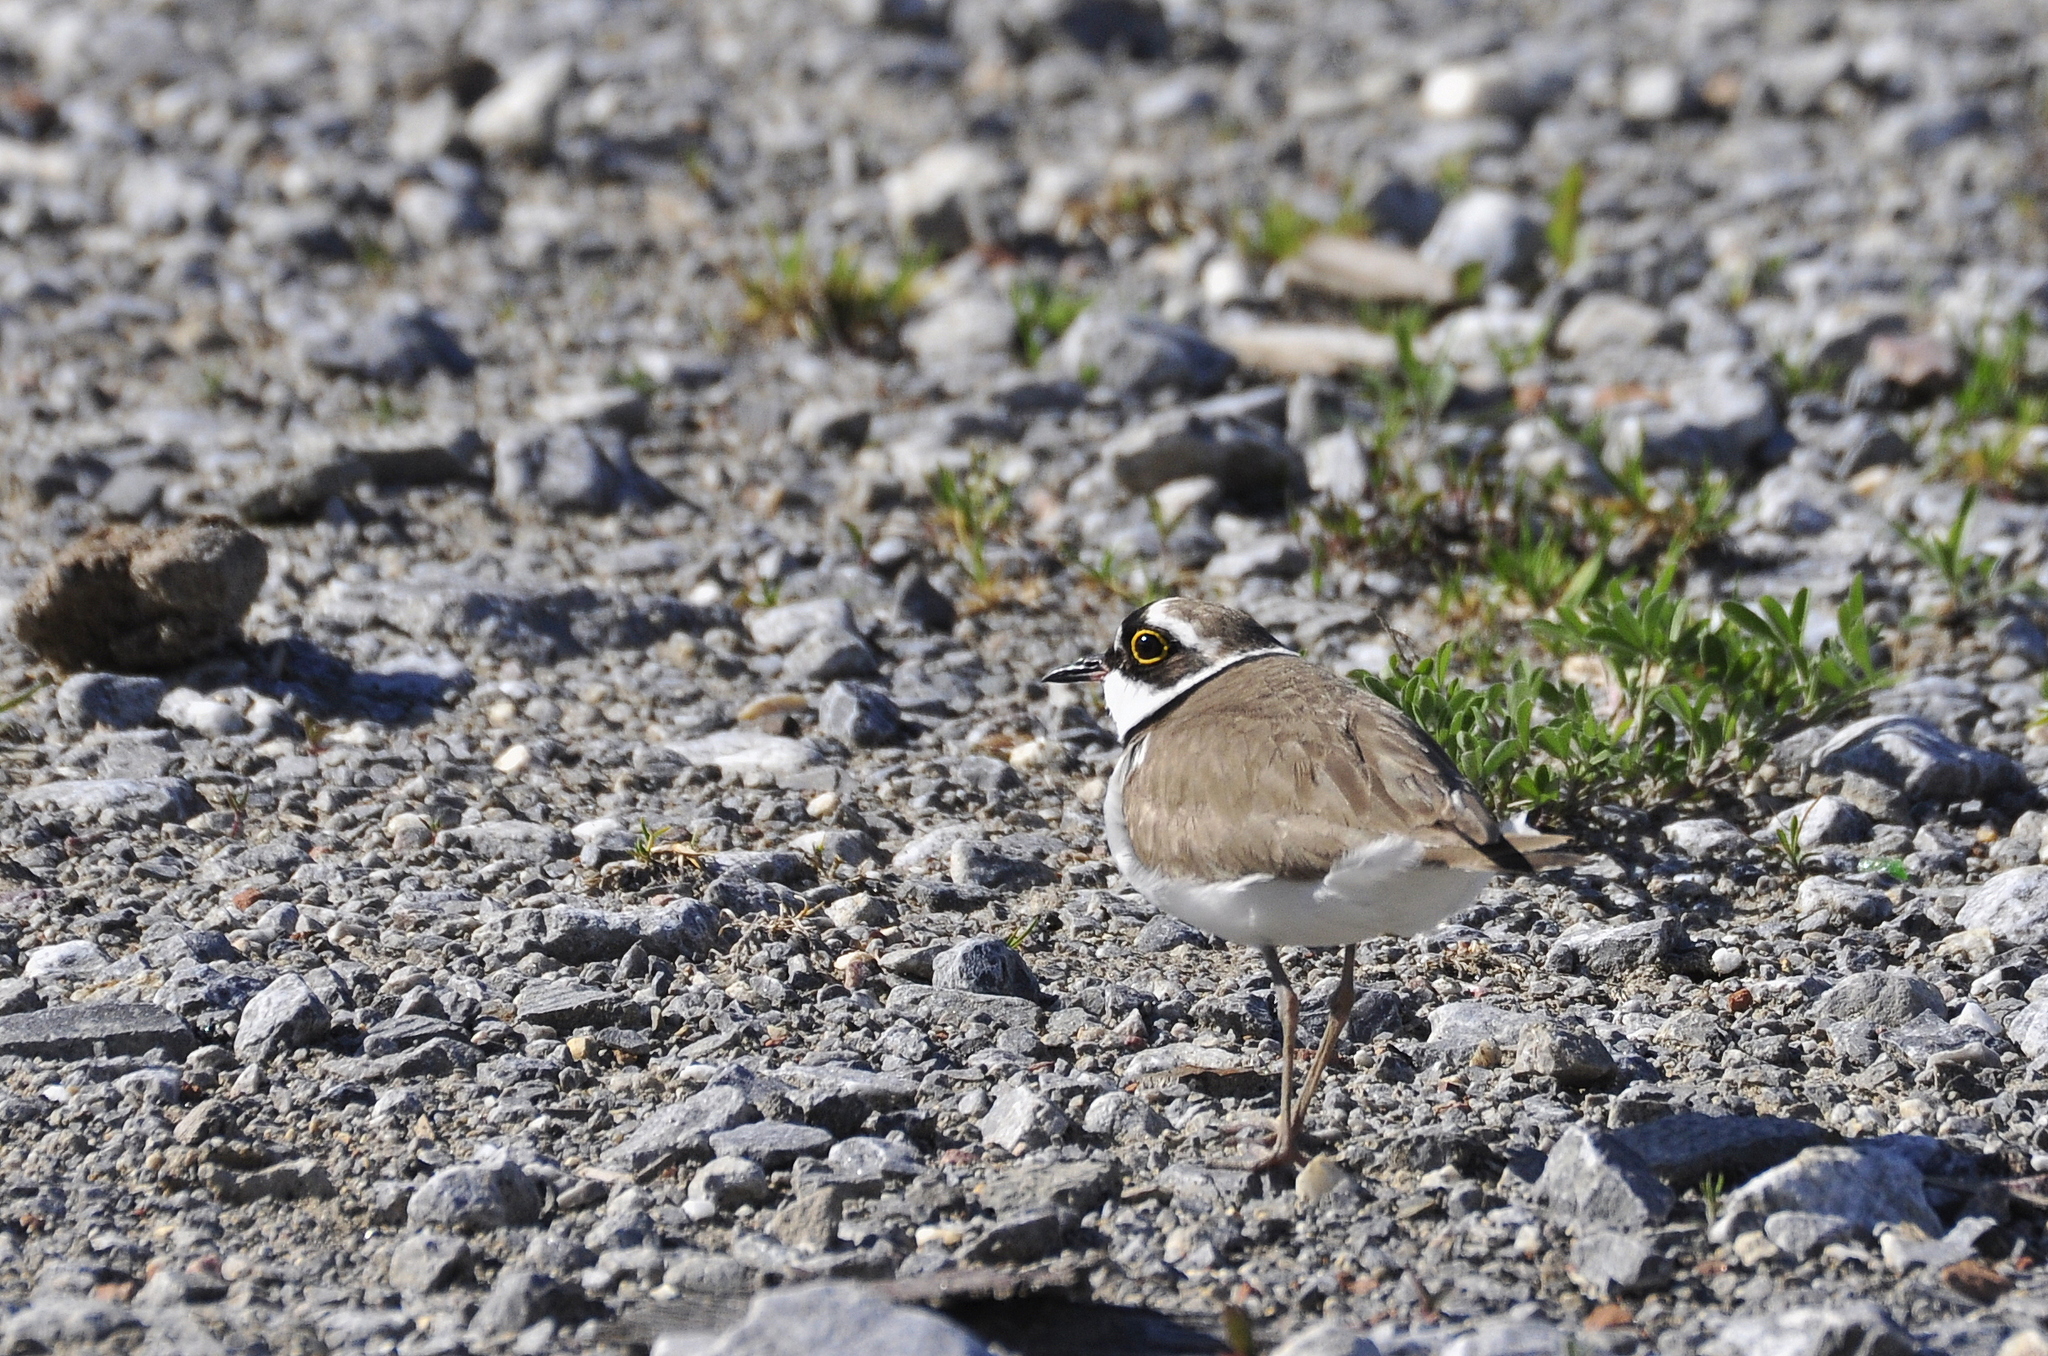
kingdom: Animalia
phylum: Chordata
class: Aves
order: Charadriiformes
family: Charadriidae
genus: Charadrius
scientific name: Charadrius dubius
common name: Little ringed plover
